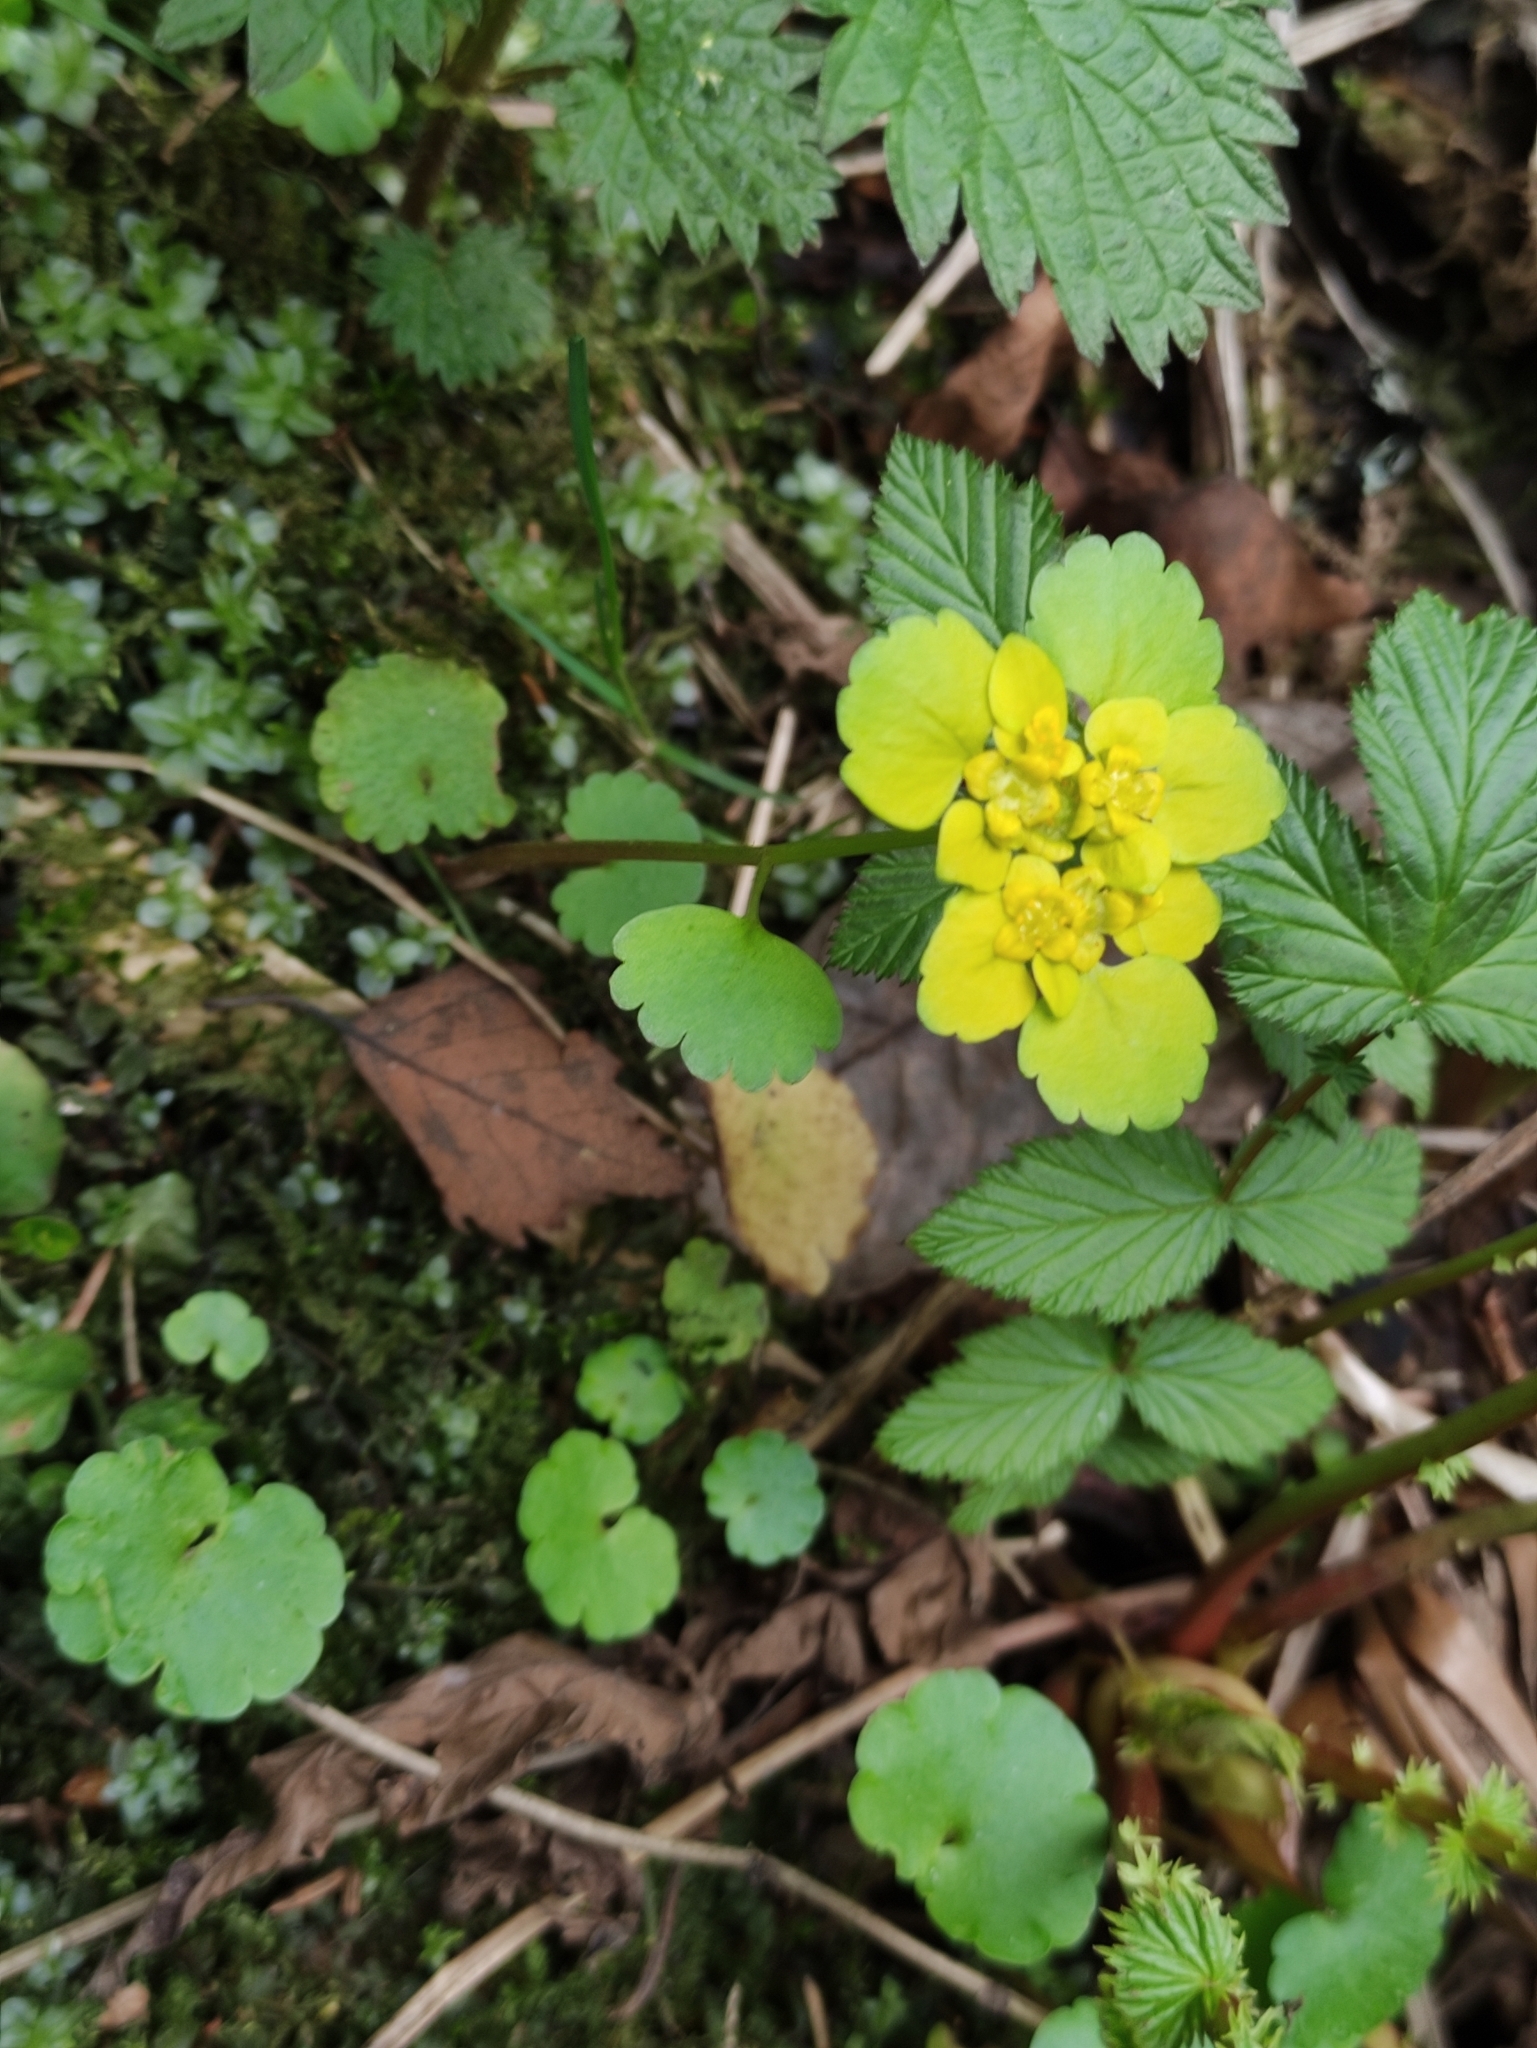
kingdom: Plantae
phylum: Tracheophyta
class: Magnoliopsida
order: Saxifragales
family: Saxifragaceae
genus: Chrysosplenium
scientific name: Chrysosplenium alternifolium
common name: Alternate-leaved golden-saxifrage
